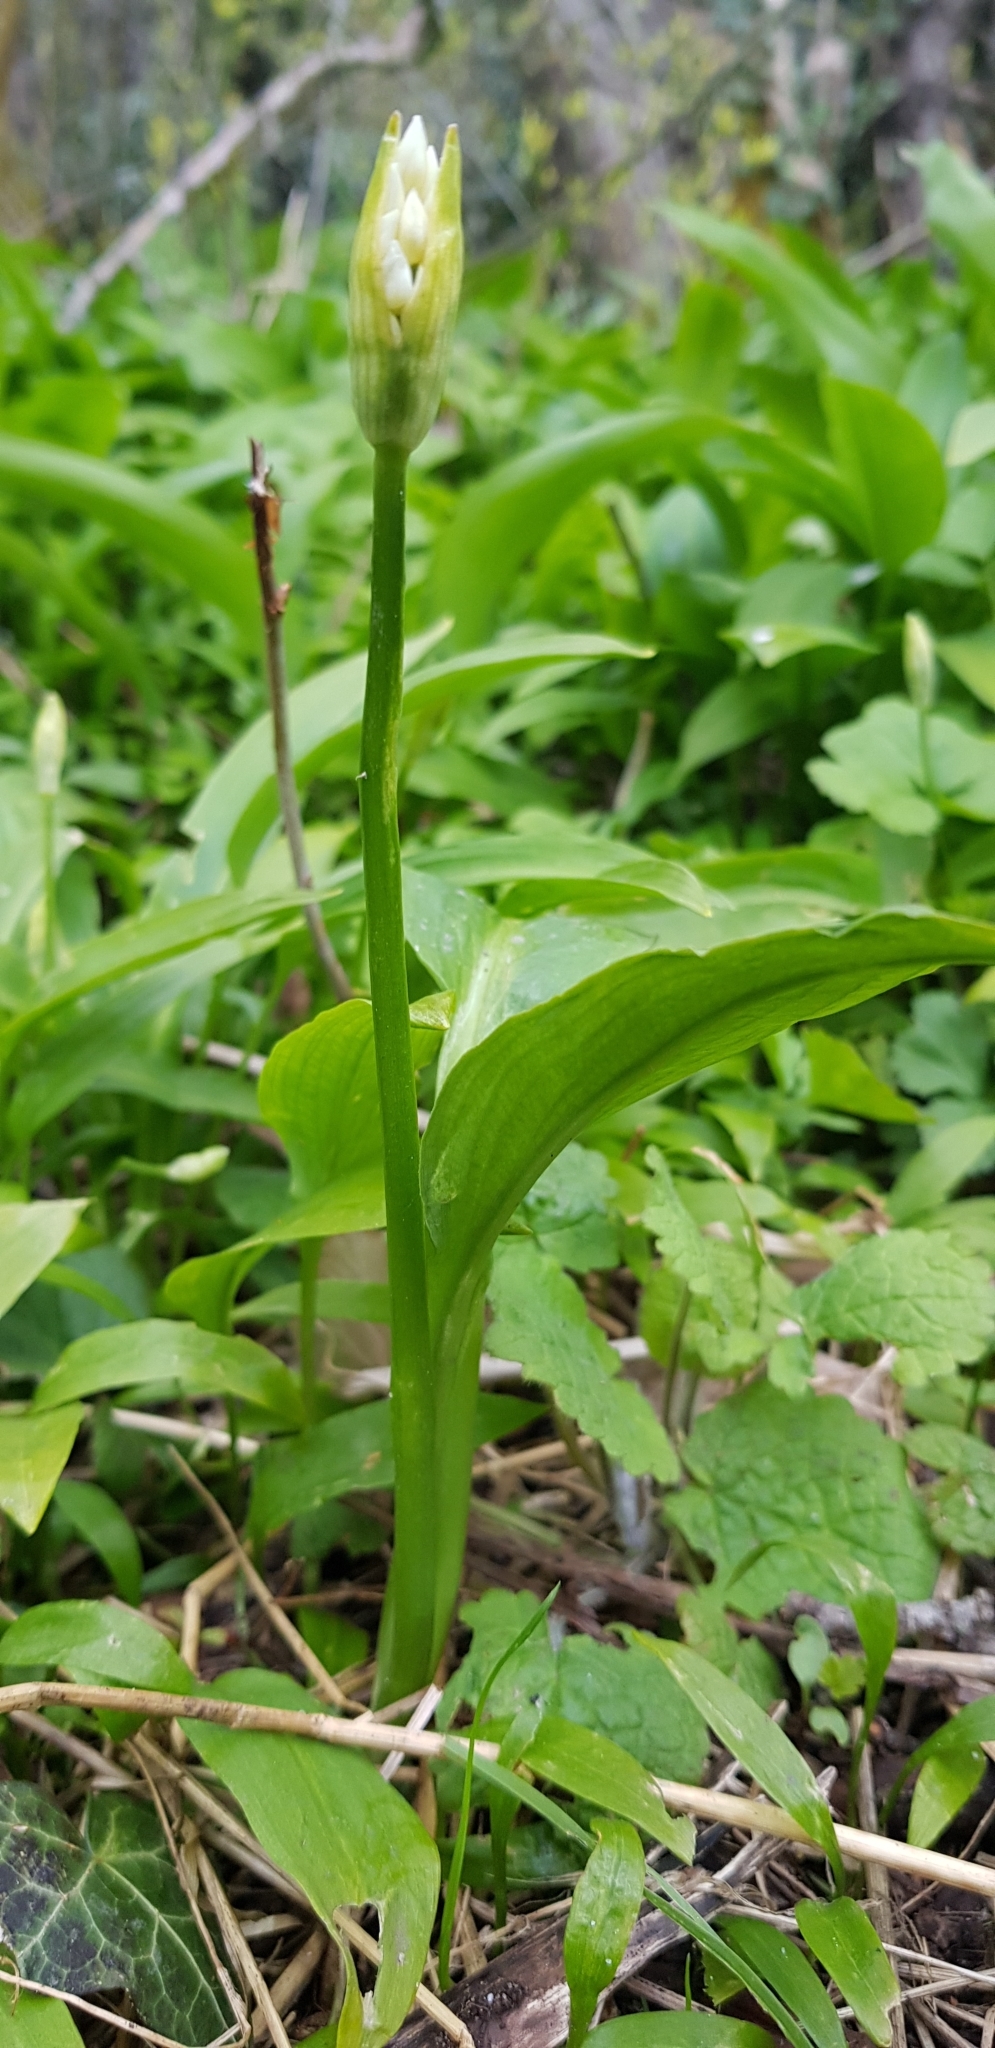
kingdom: Plantae
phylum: Tracheophyta
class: Liliopsida
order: Asparagales
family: Amaryllidaceae
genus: Allium
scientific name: Allium ursinum
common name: Ramsons
